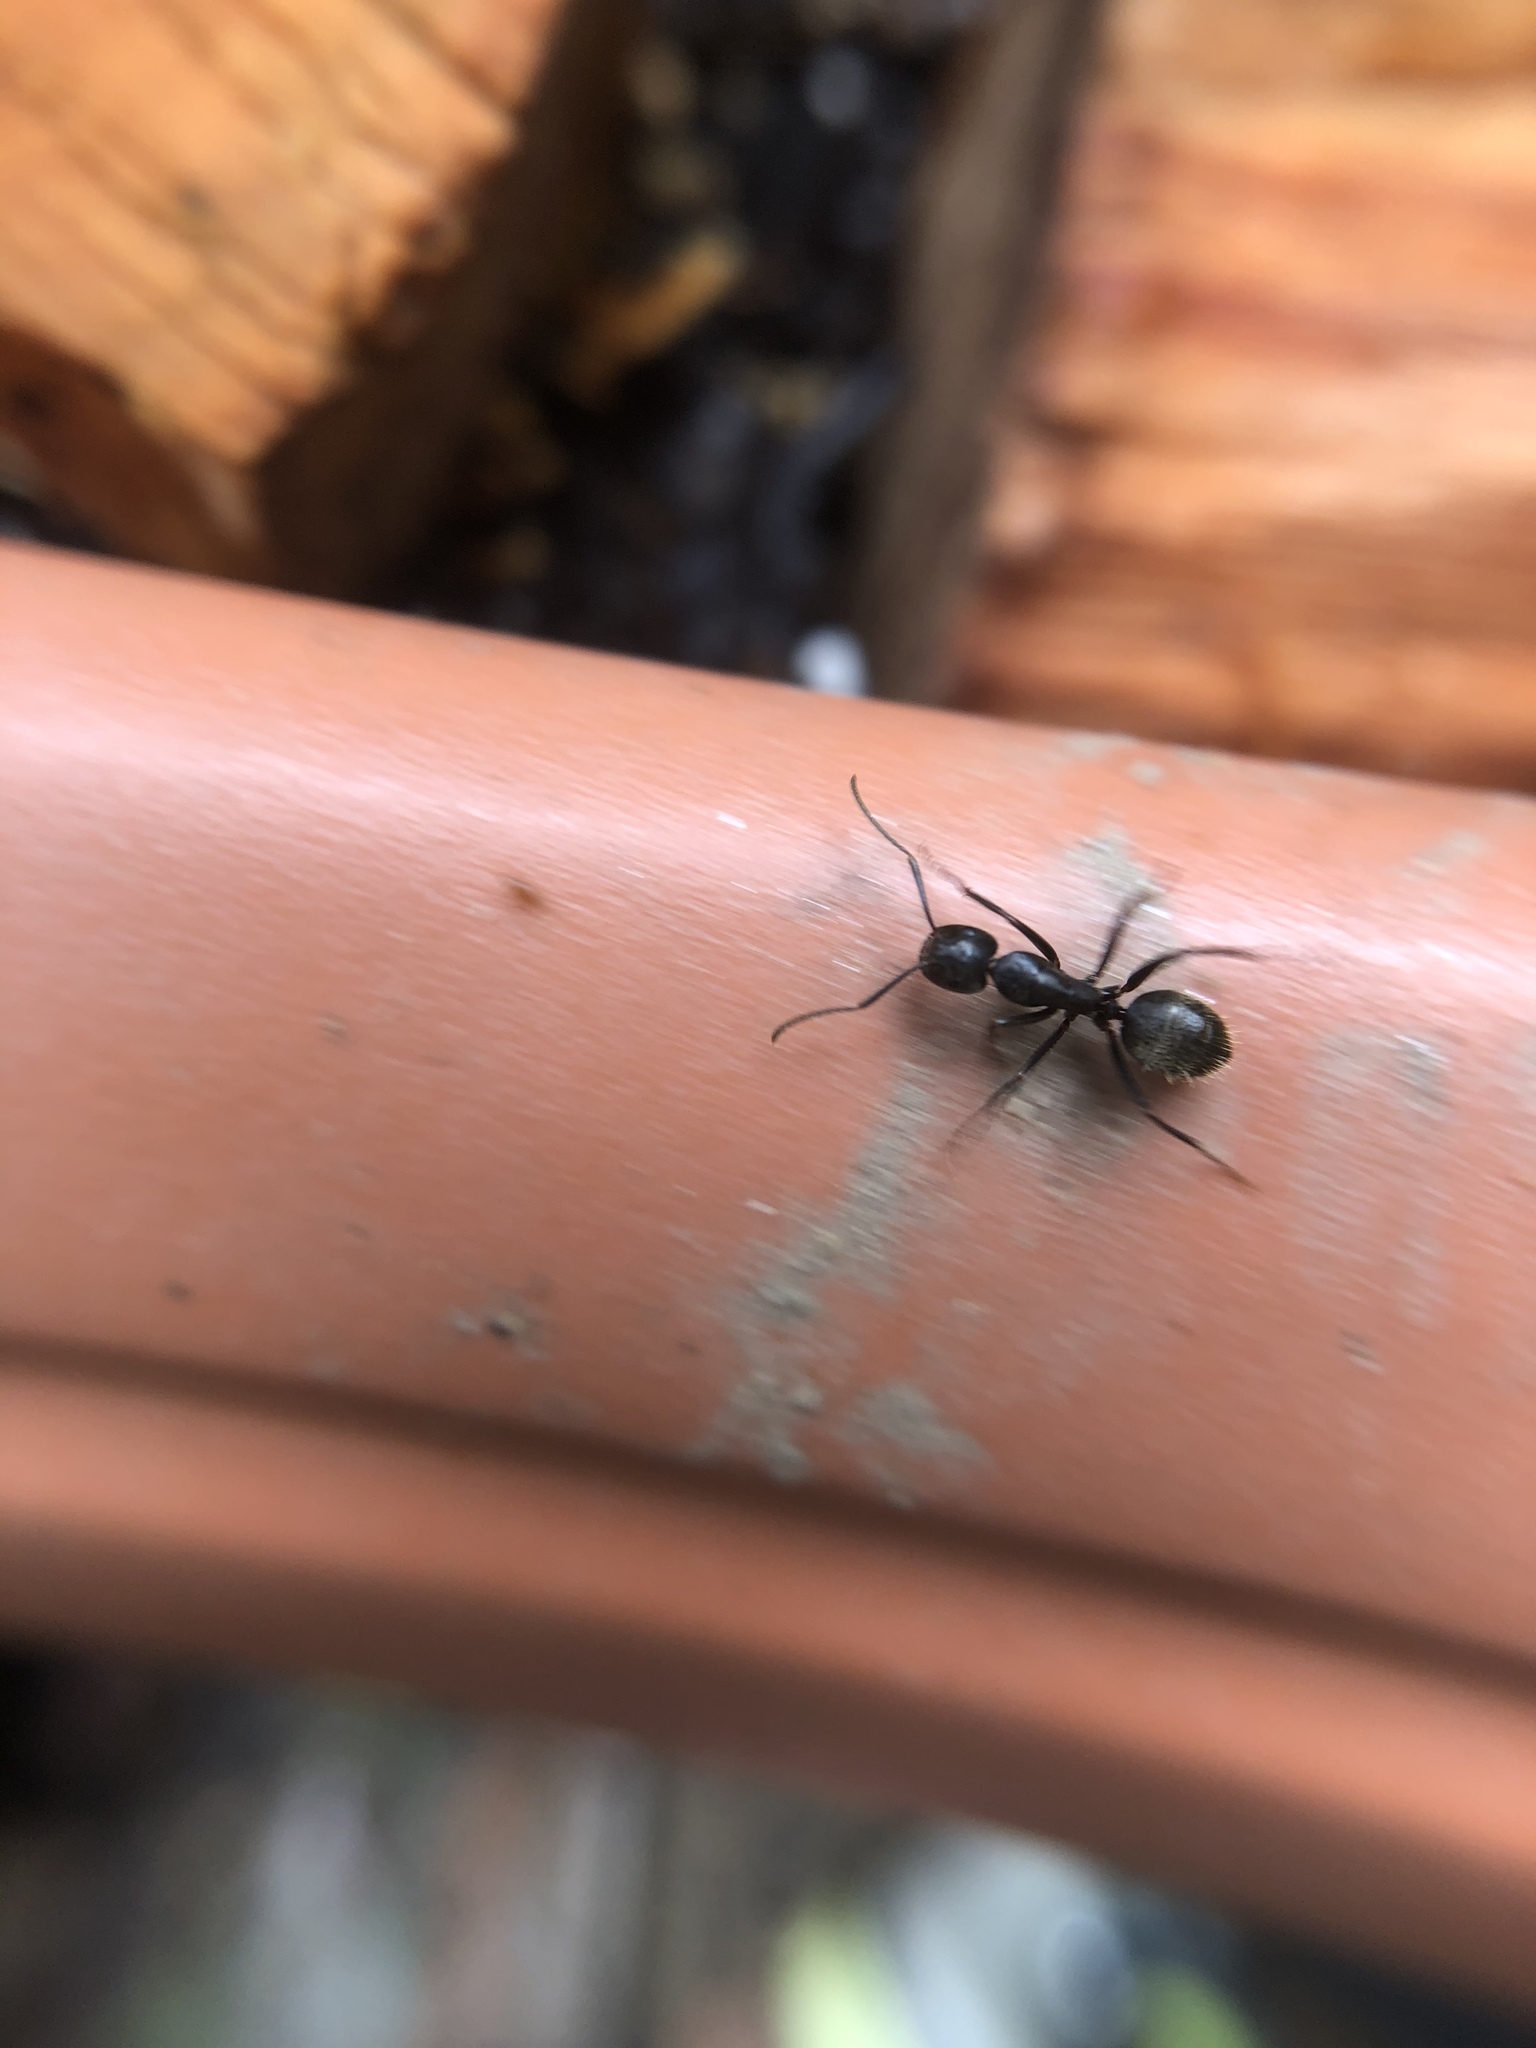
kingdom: Animalia
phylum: Arthropoda
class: Insecta
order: Hymenoptera
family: Formicidae
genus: Camponotus
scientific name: Camponotus pennsylvanicus
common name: Black carpenter ant
